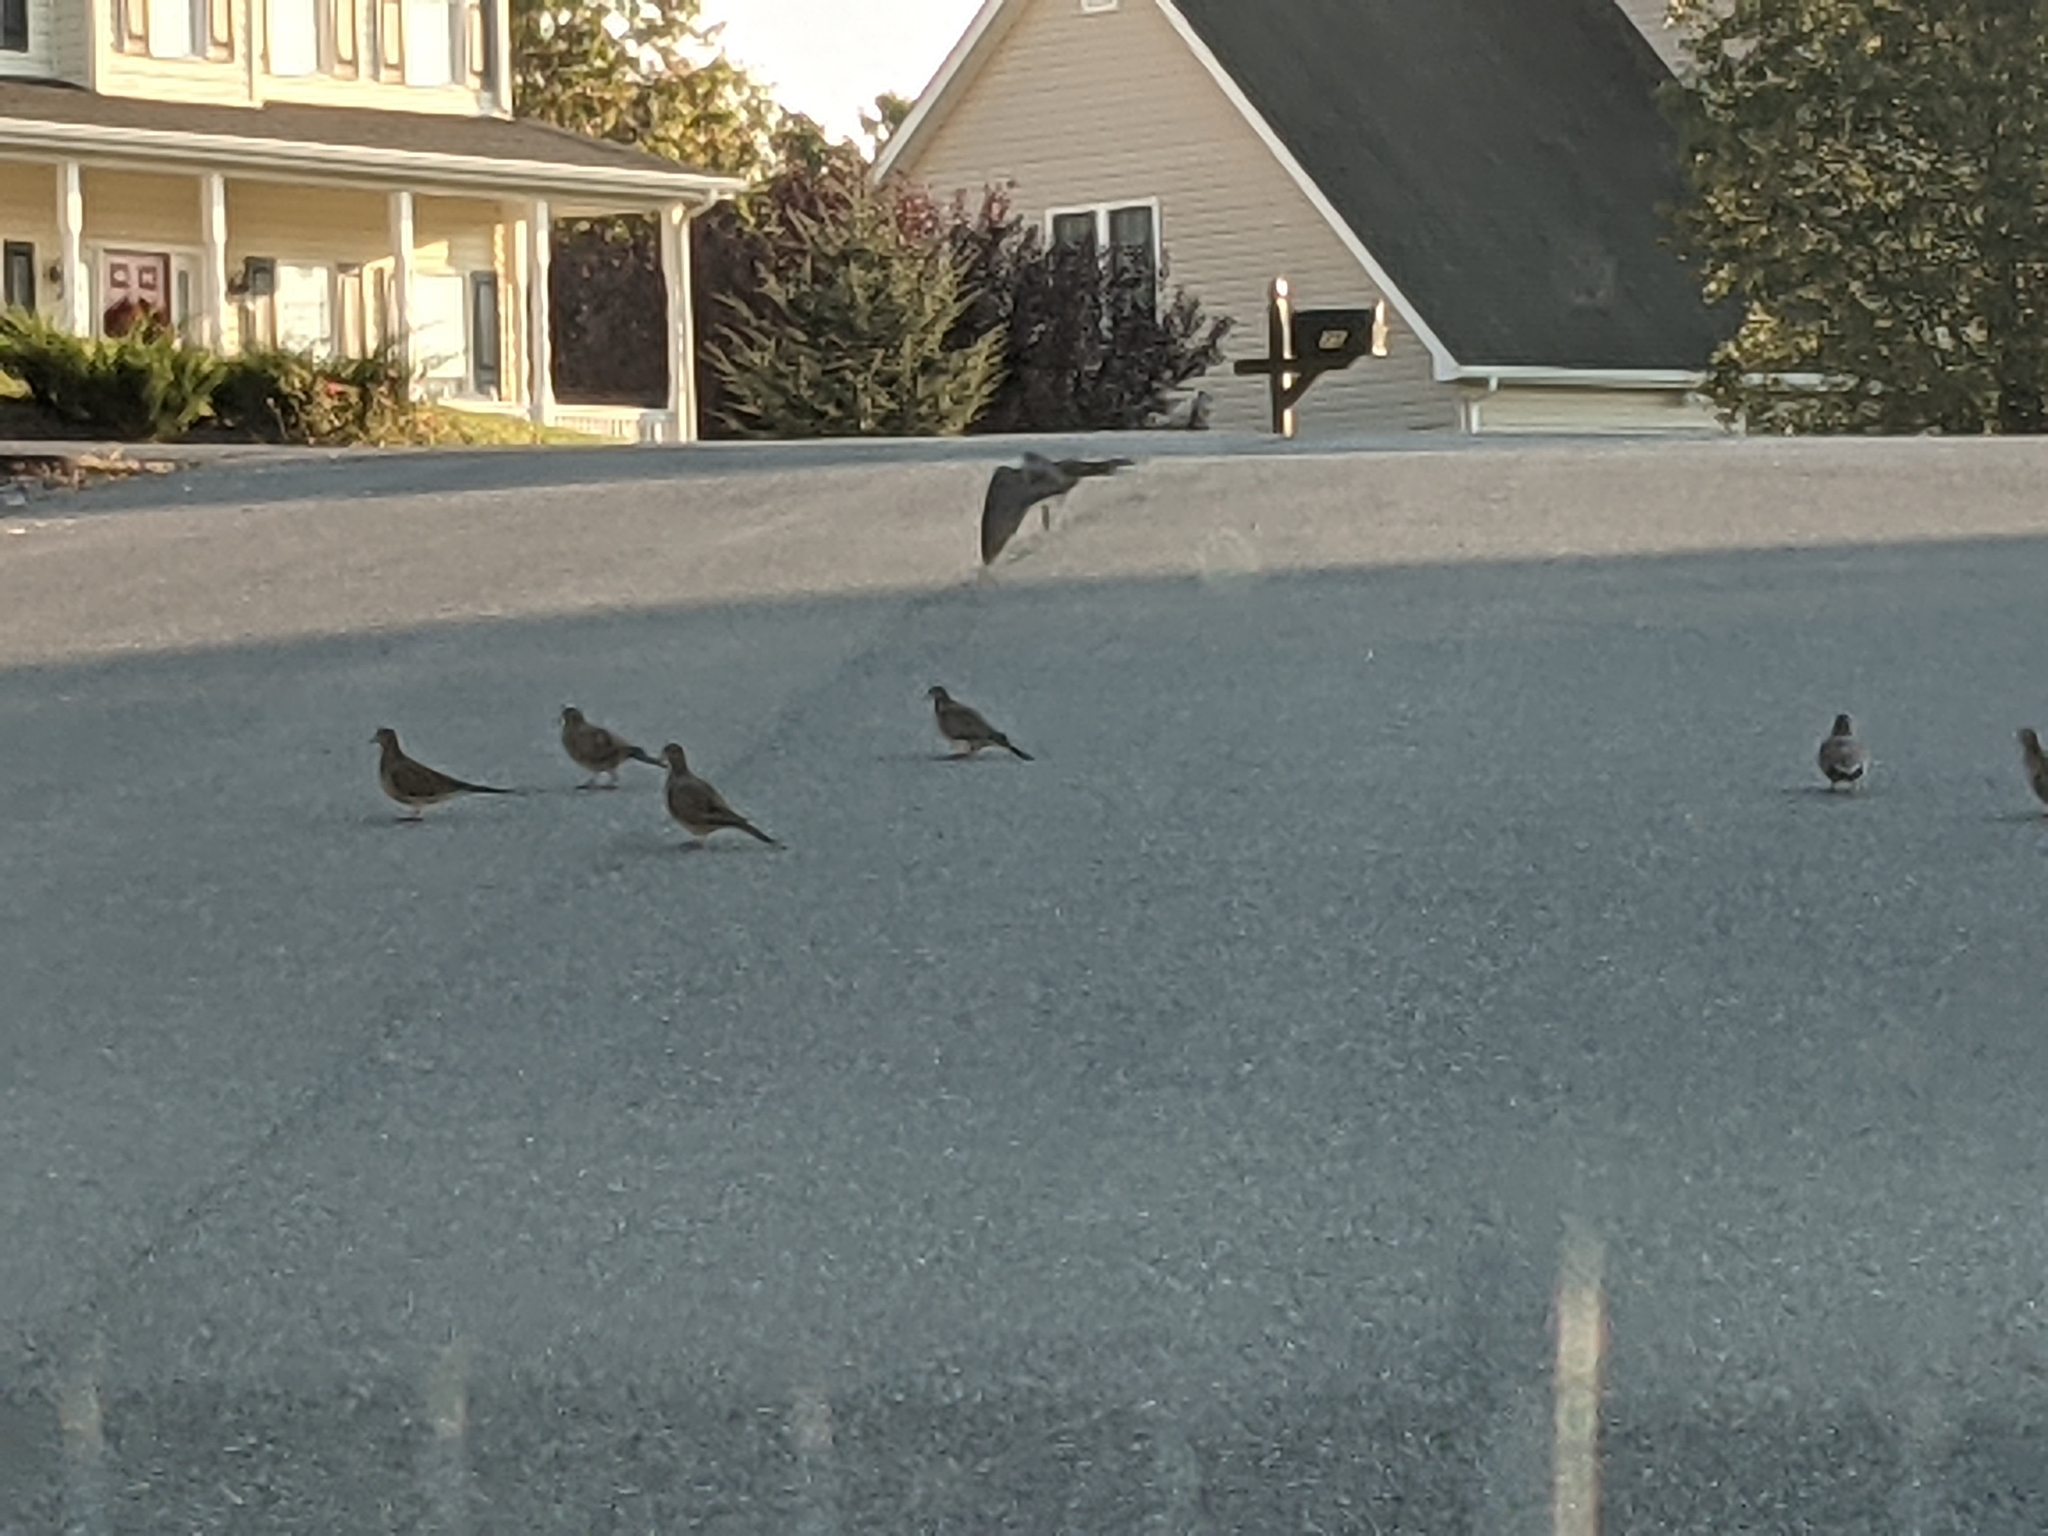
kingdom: Animalia
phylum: Chordata
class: Aves
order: Columbiformes
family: Columbidae
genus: Zenaida
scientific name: Zenaida macroura
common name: Mourning dove
